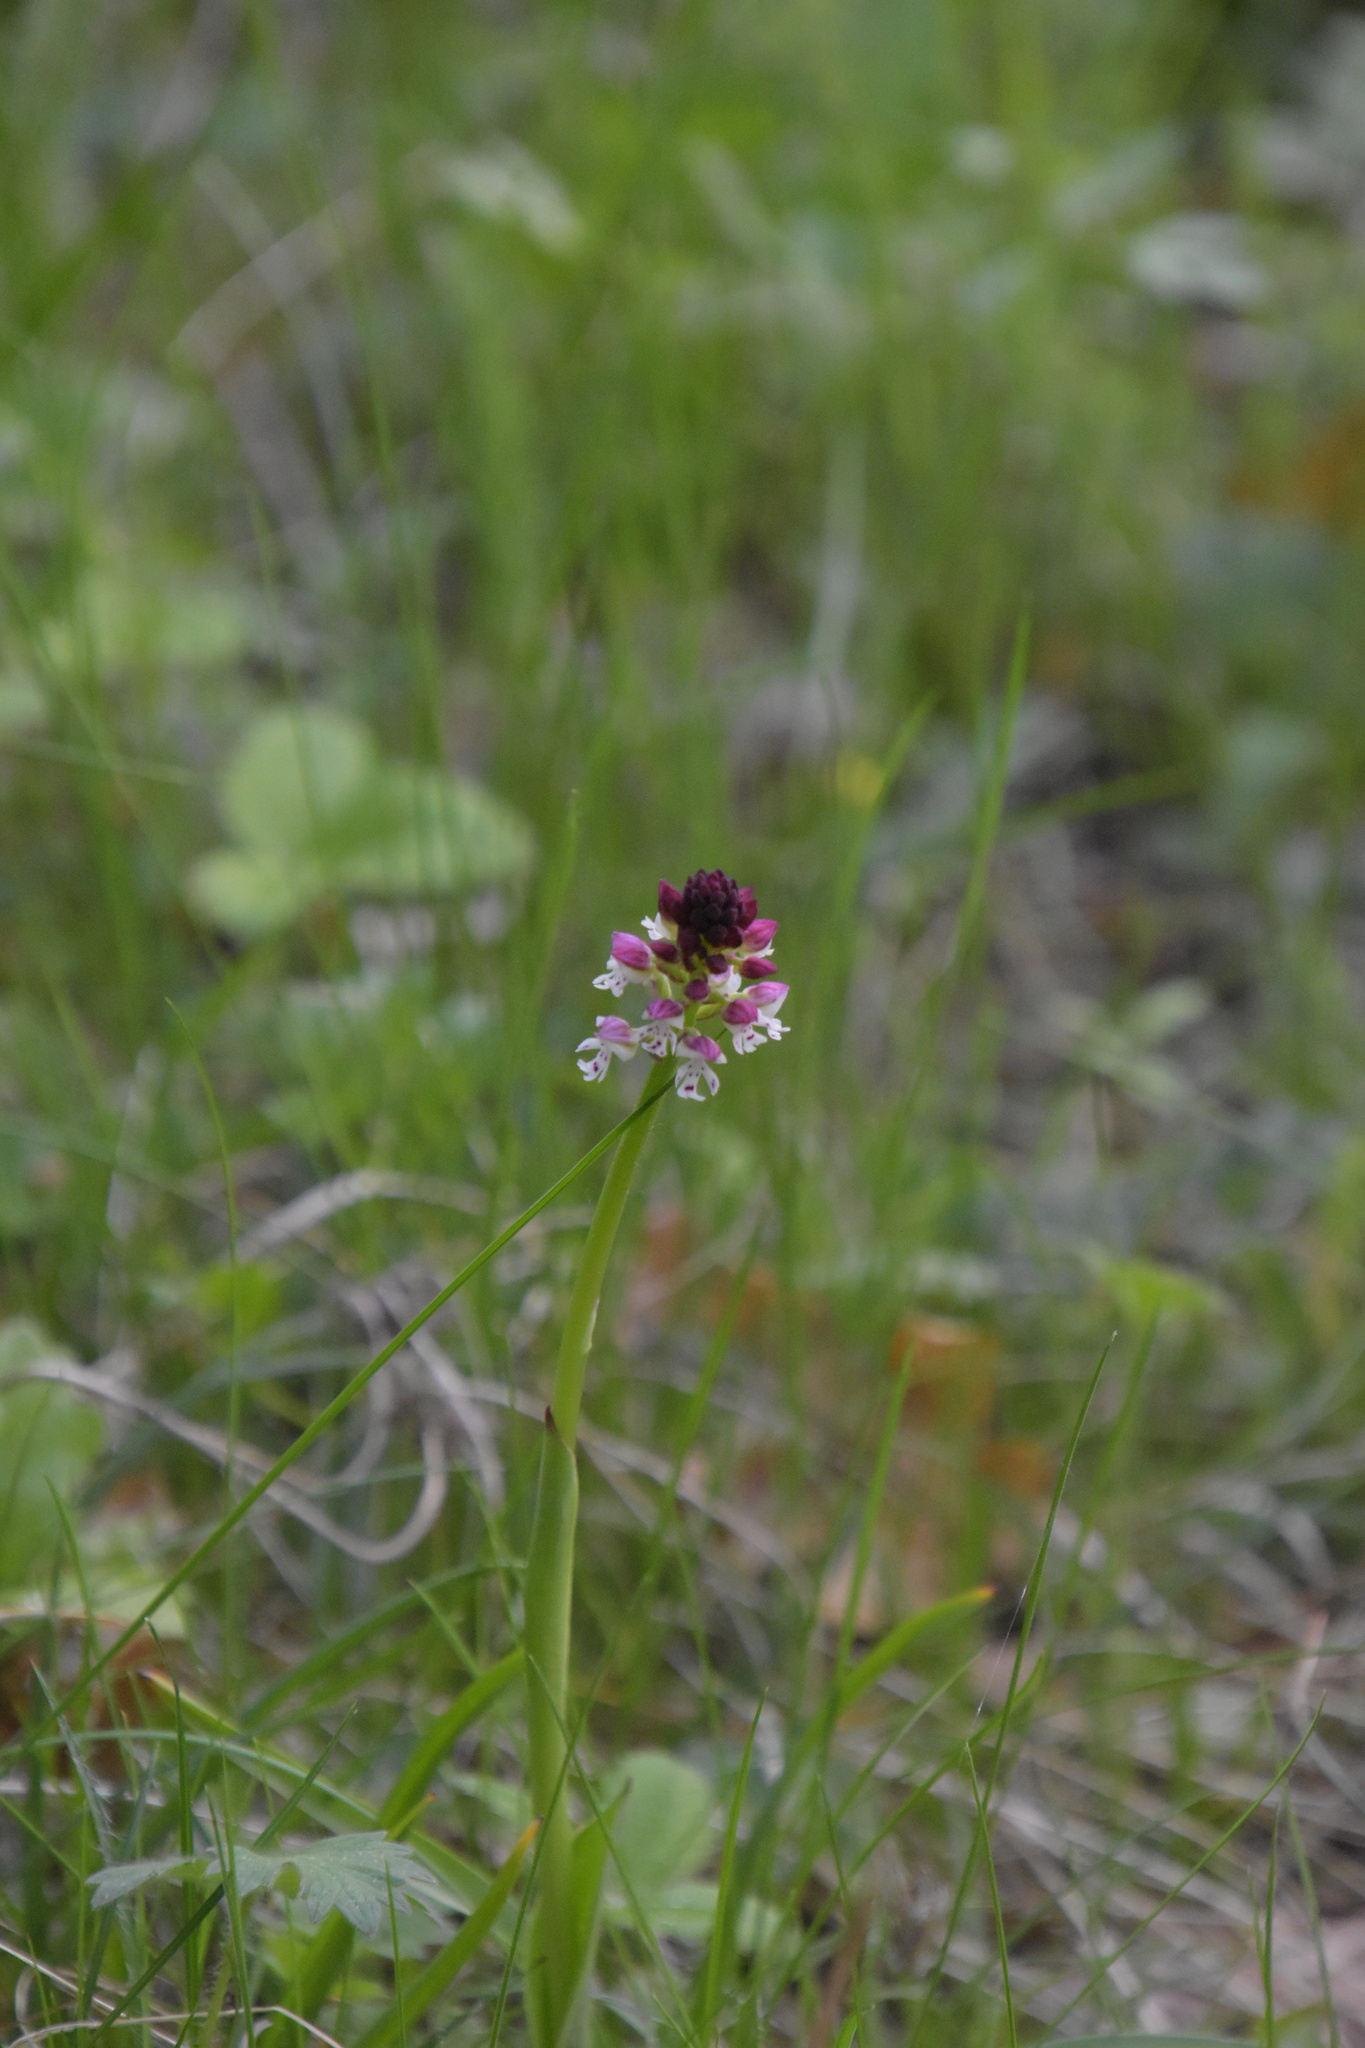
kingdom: Plantae
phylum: Tracheophyta
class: Liliopsida
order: Asparagales
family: Orchidaceae
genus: Neotinea
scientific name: Neotinea ustulata
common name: Burnt orchid
